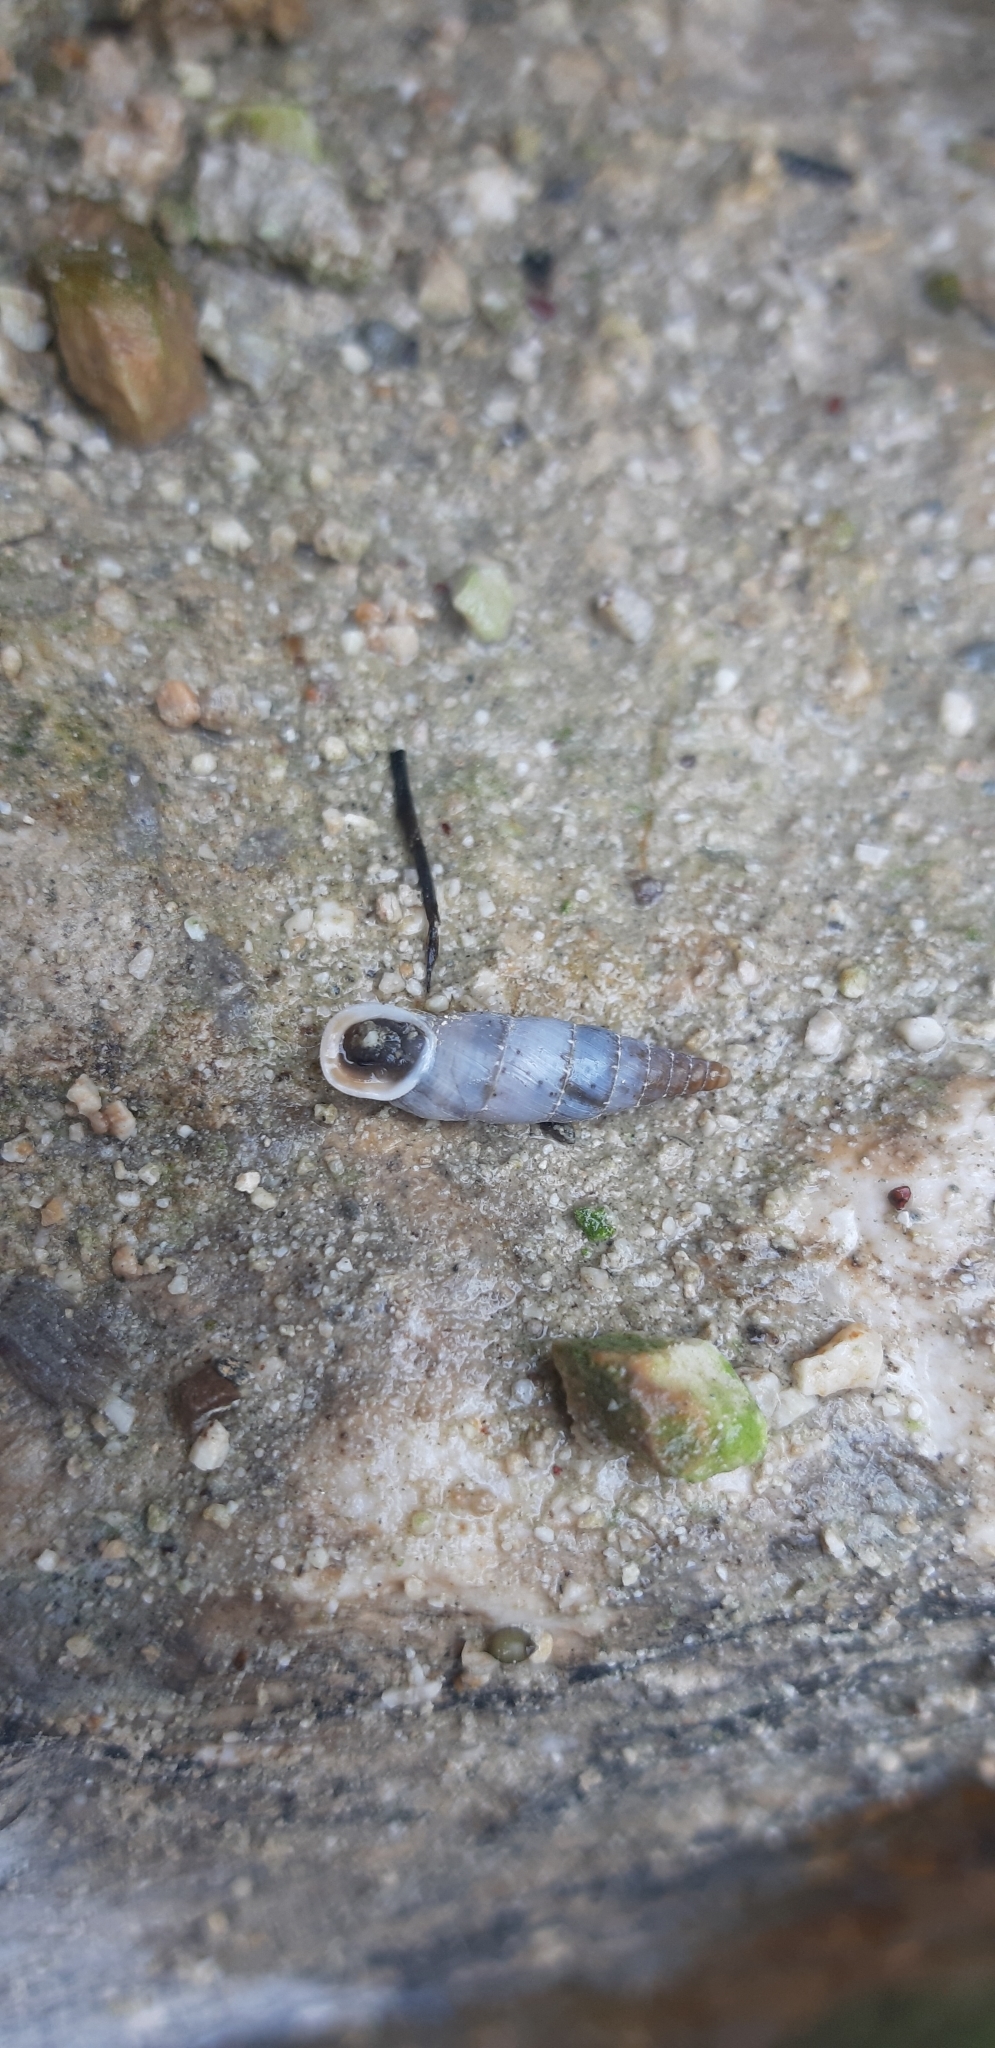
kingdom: Animalia
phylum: Mollusca
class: Gastropoda
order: Stylommatophora
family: Clausiliidae
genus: Leucostigma
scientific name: Leucostigma candidescens
